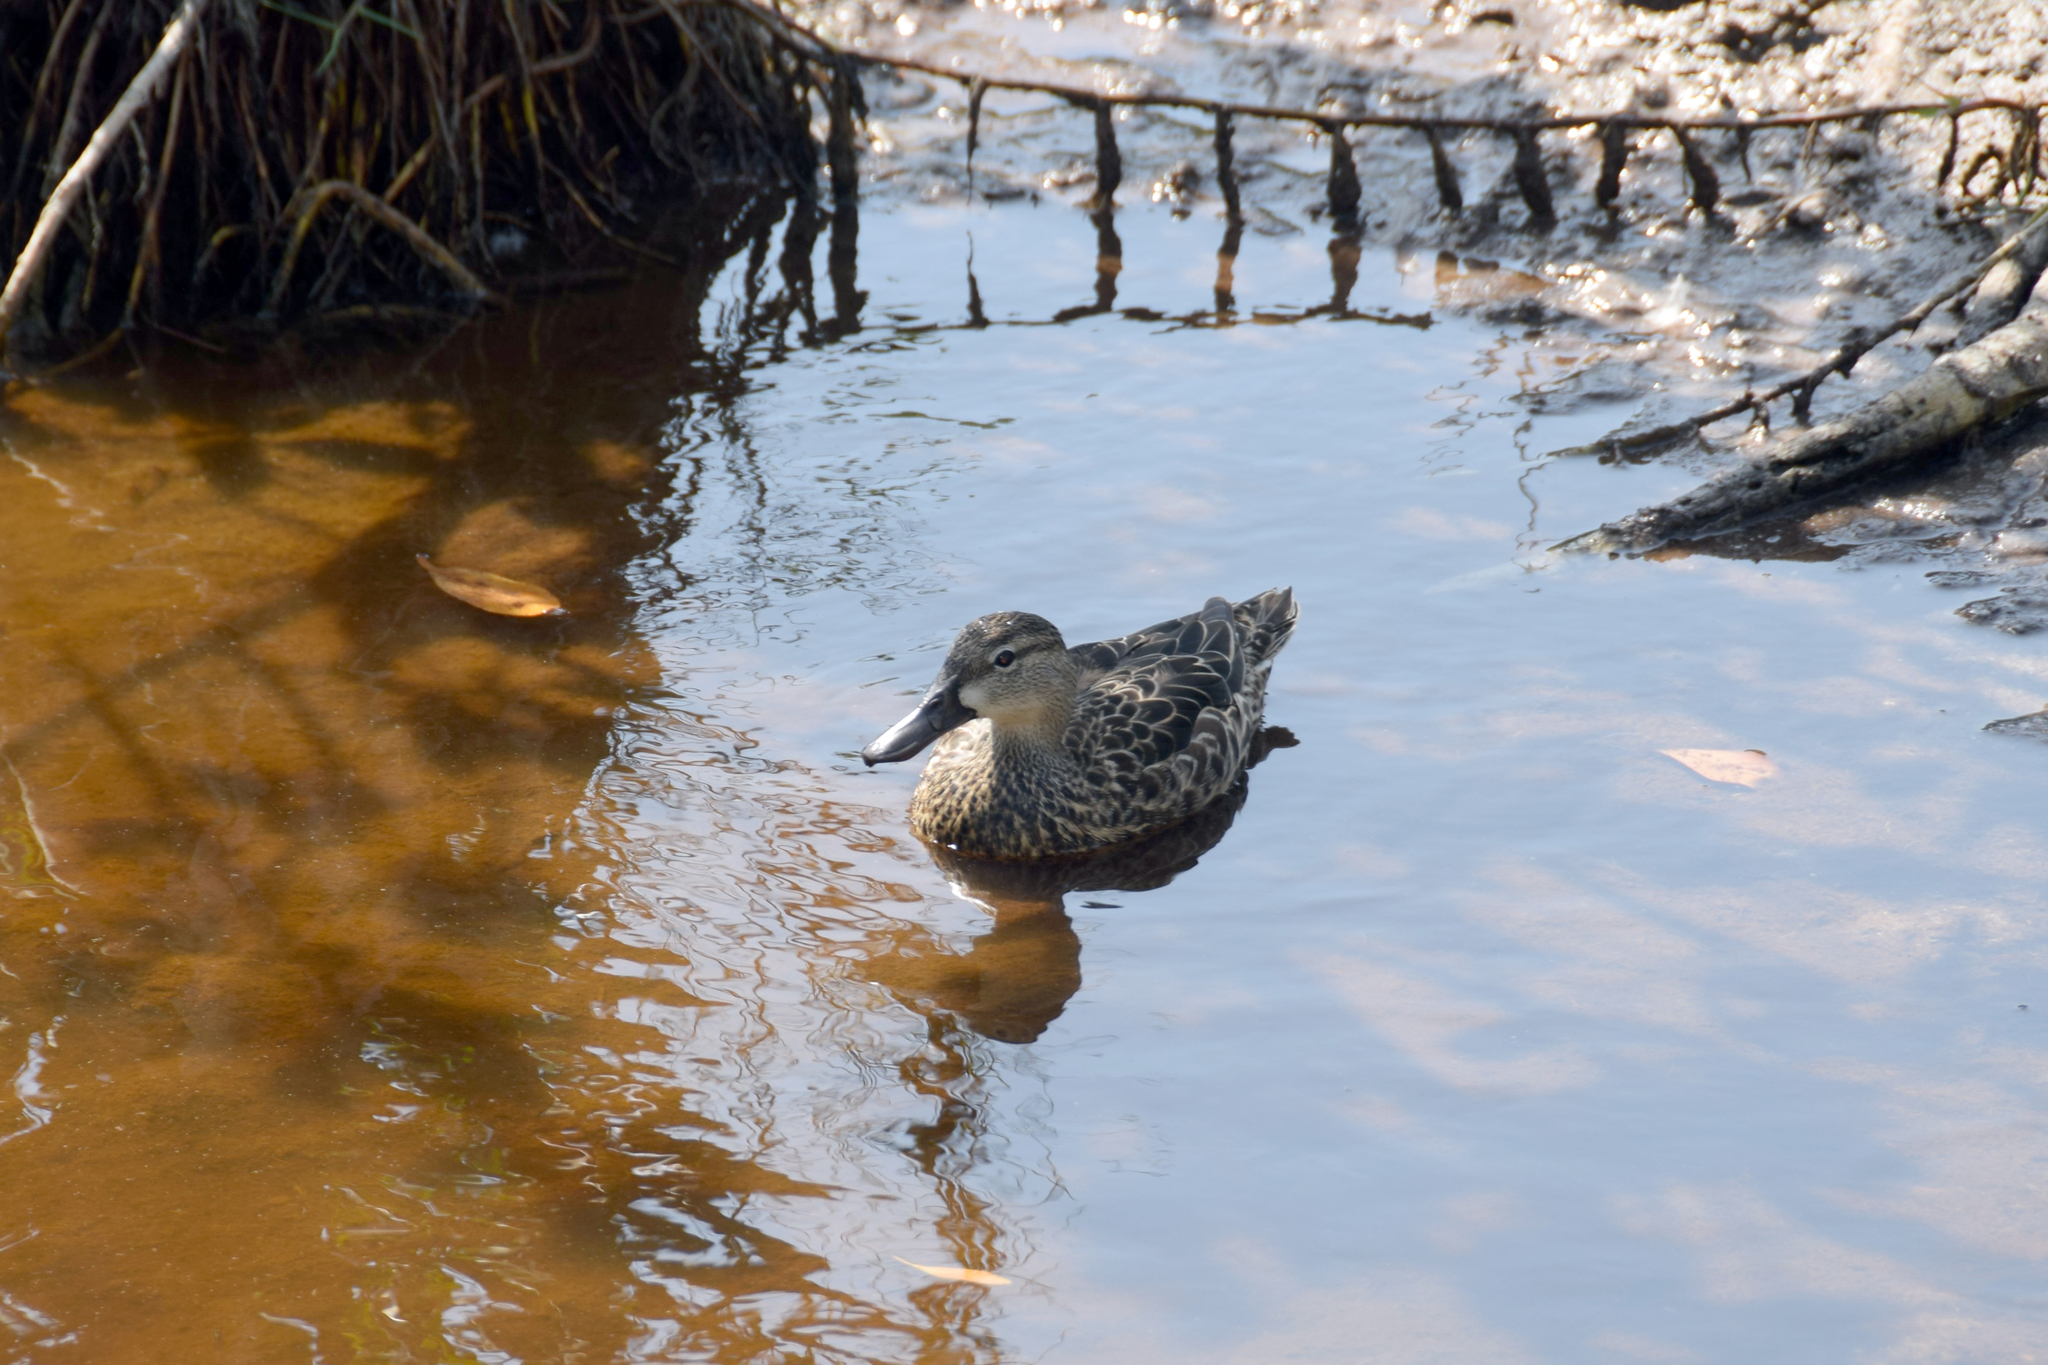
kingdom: Animalia
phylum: Chordata
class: Aves
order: Anseriformes
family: Anatidae
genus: Spatula
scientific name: Spatula discors
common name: Blue-winged teal
